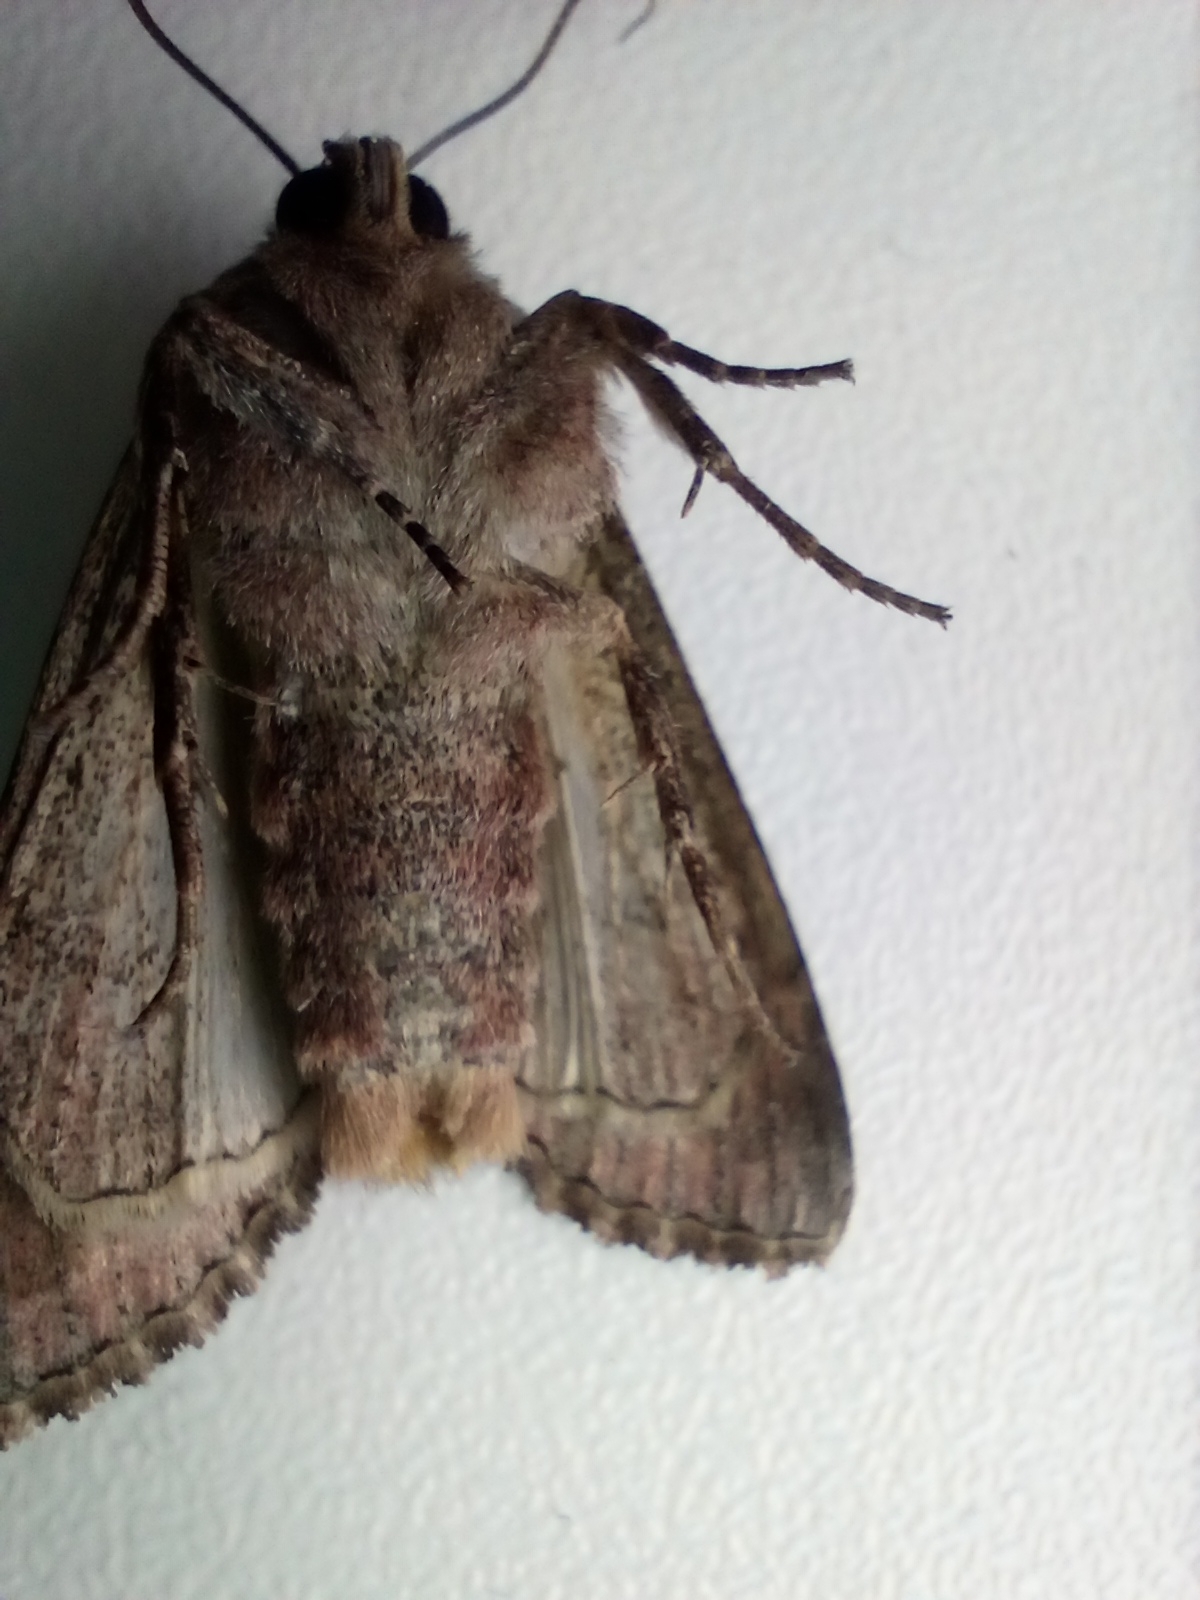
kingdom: Animalia
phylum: Arthropoda
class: Insecta
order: Lepidoptera
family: Noctuidae
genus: Lacanobia
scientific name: Lacanobia w-latinum
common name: Light brocade
